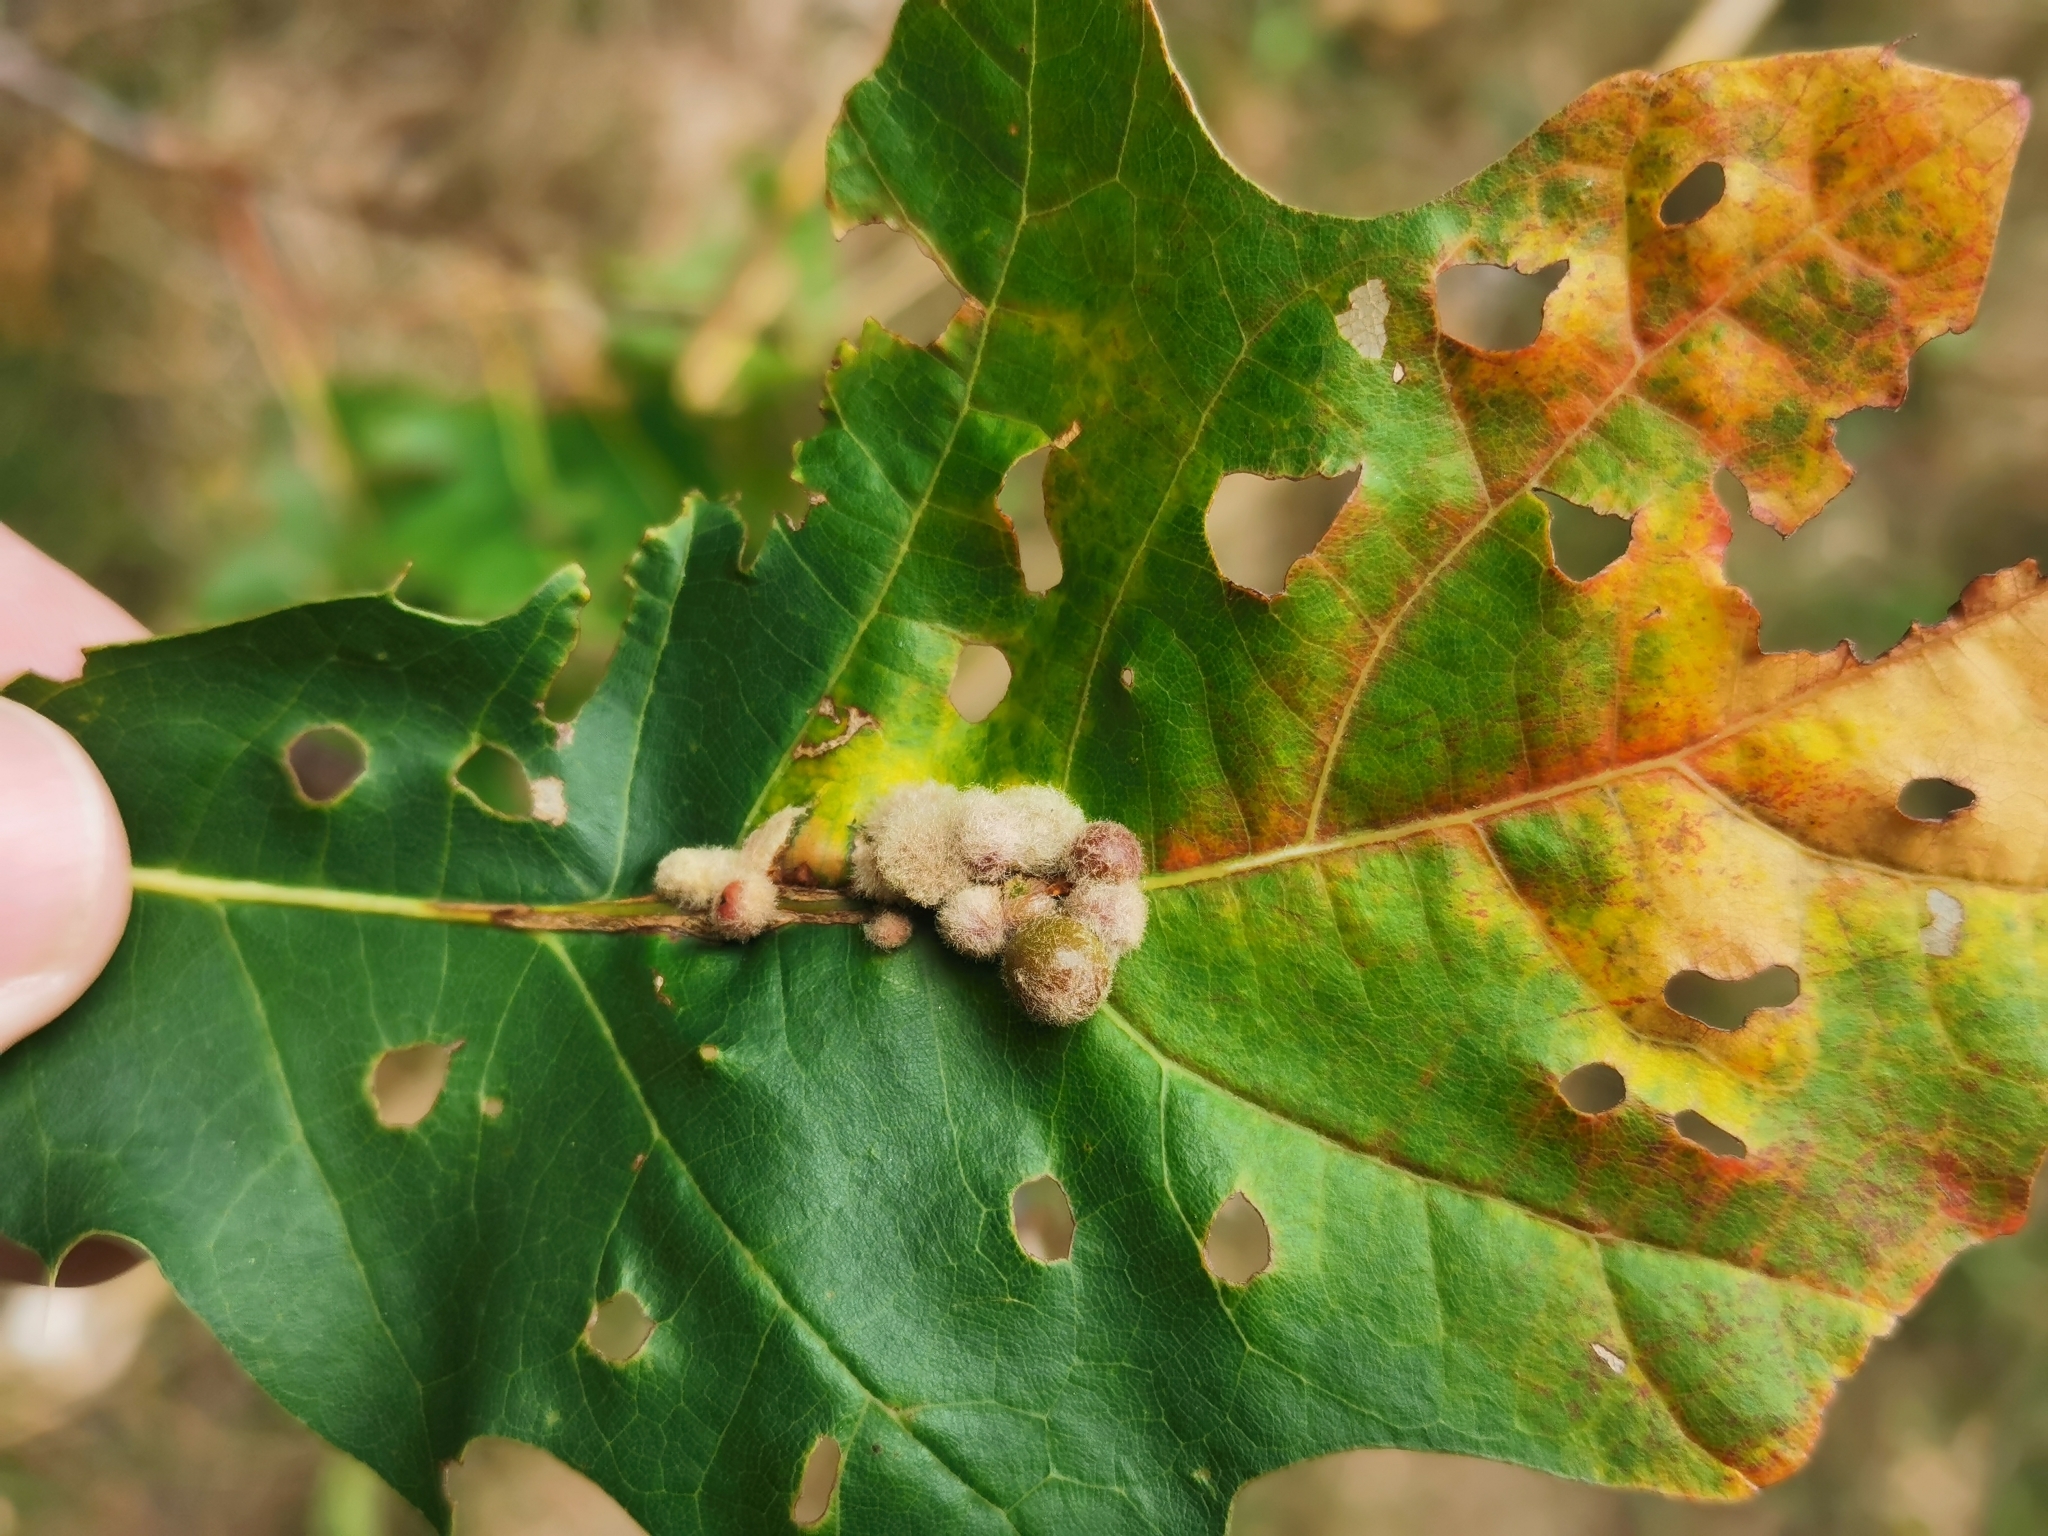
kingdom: Animalia
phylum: Arthropoda
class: Insecta
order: Hymenoptera
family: Cynipidae
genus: Callirhytis
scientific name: Callirhytis
